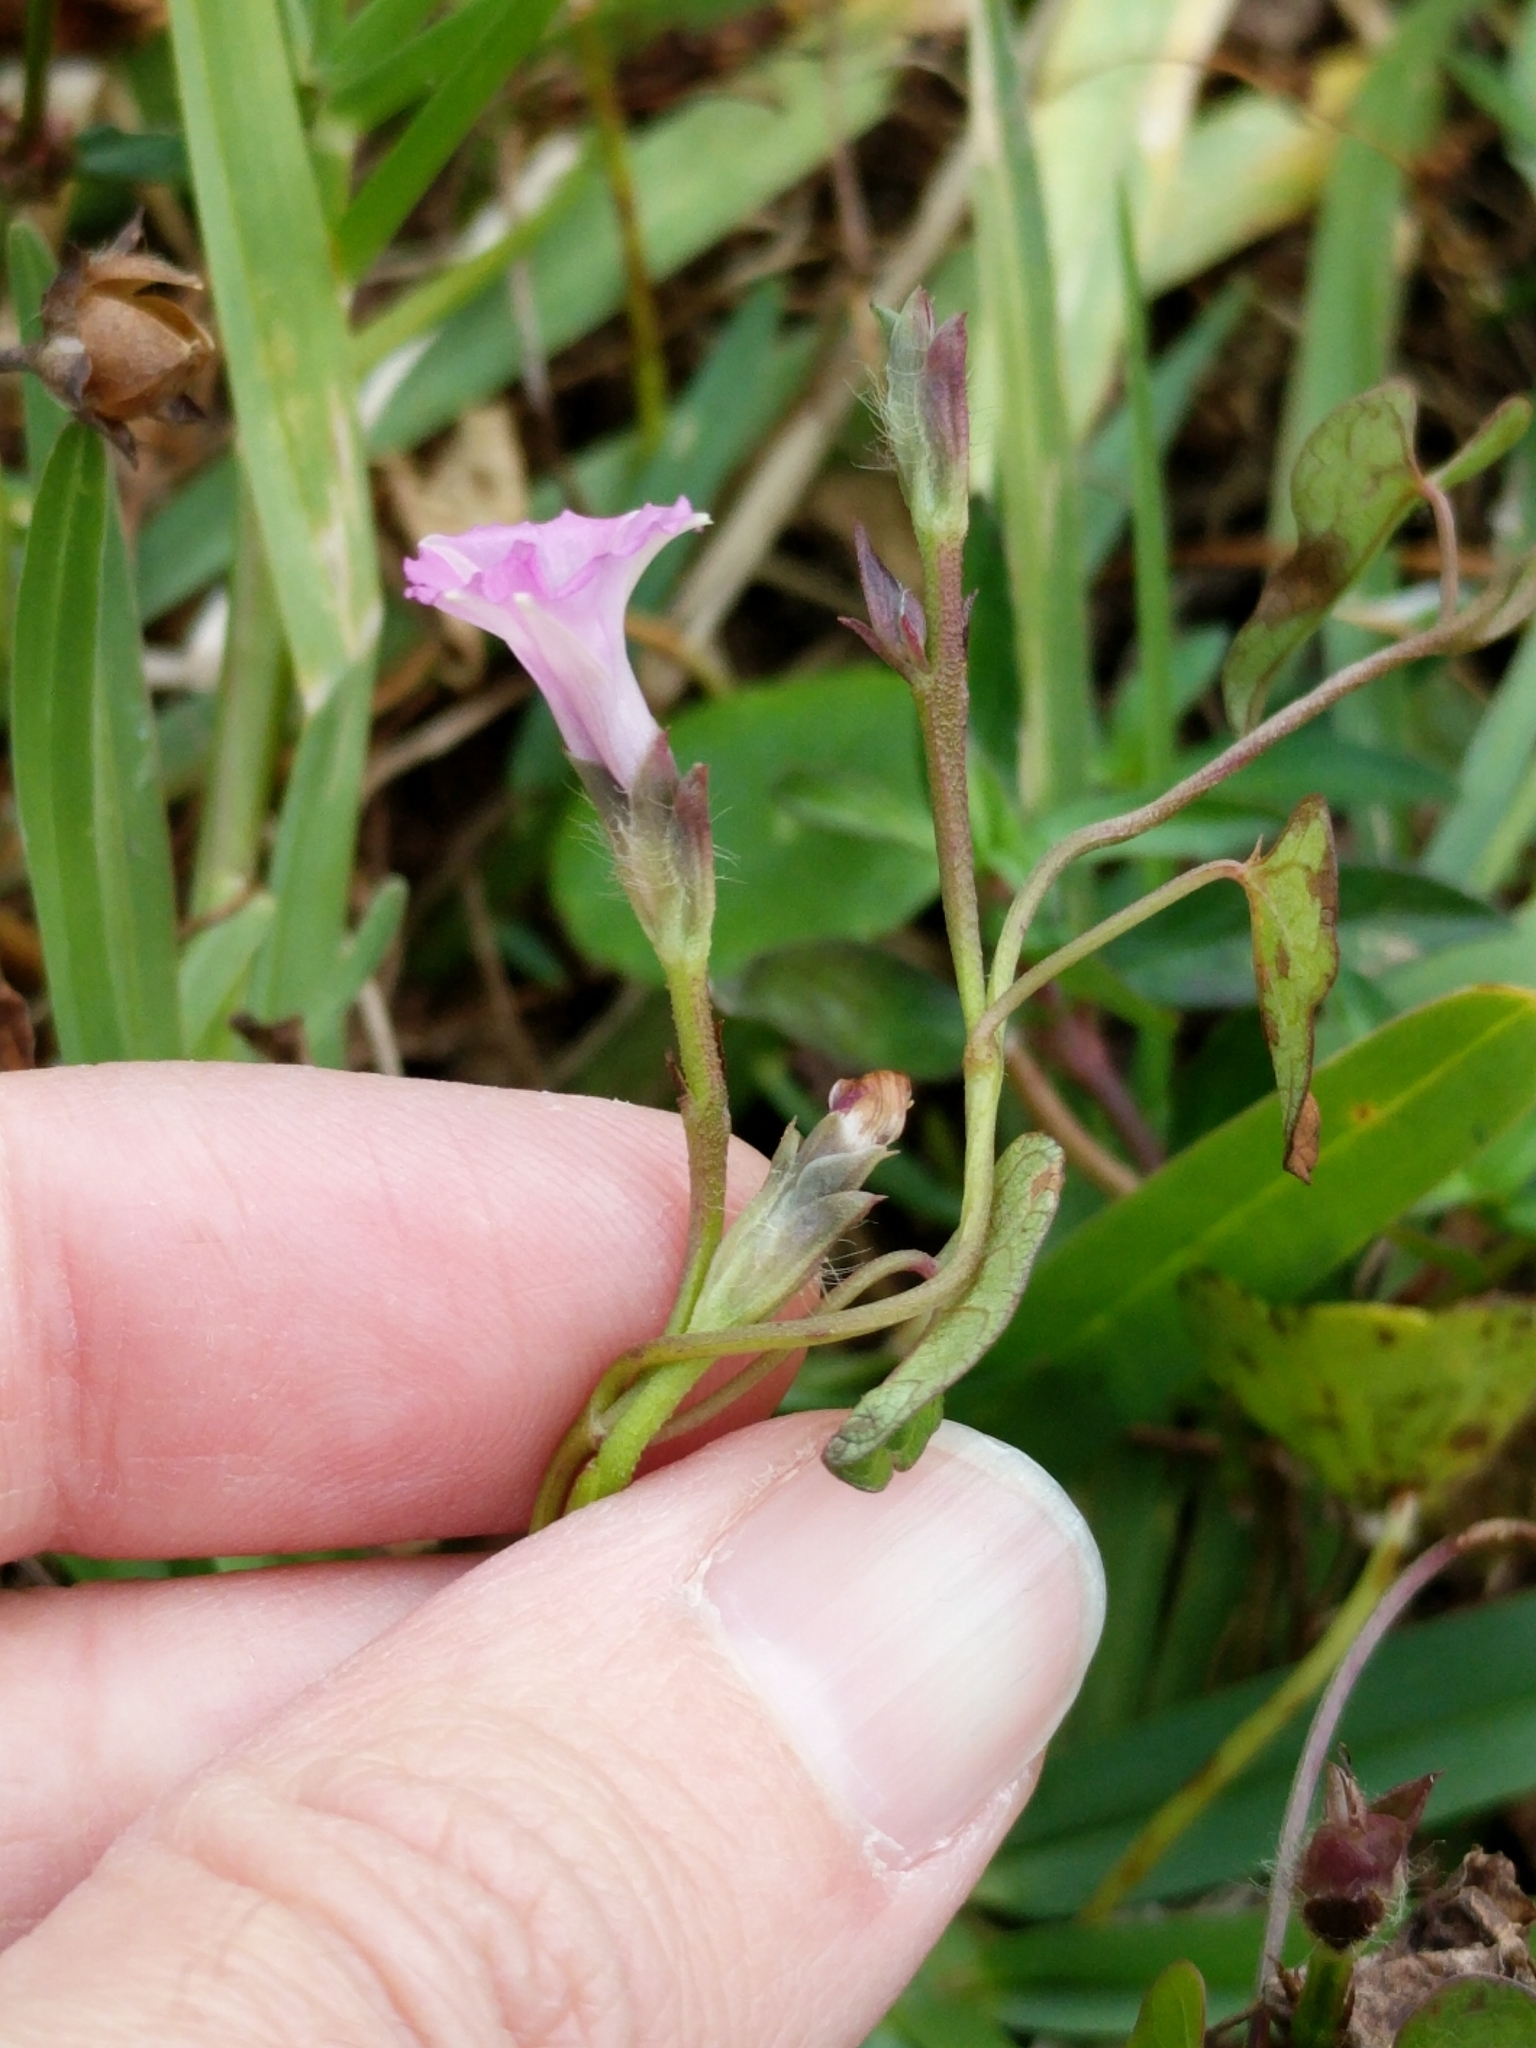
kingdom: Plantae
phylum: Tracheophyta
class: Magnoliopsida
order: Solanales
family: Convolvulaceae
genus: Ipomoea
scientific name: Ipomoea triloba
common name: Little-bell
